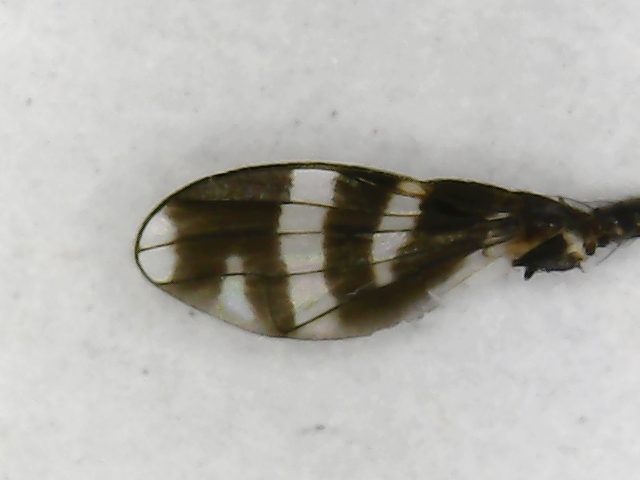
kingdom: Animalia
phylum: Arthropoda
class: Insecta
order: Diptera
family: Ulidiidae
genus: Herina
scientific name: Herina frondescentiae
